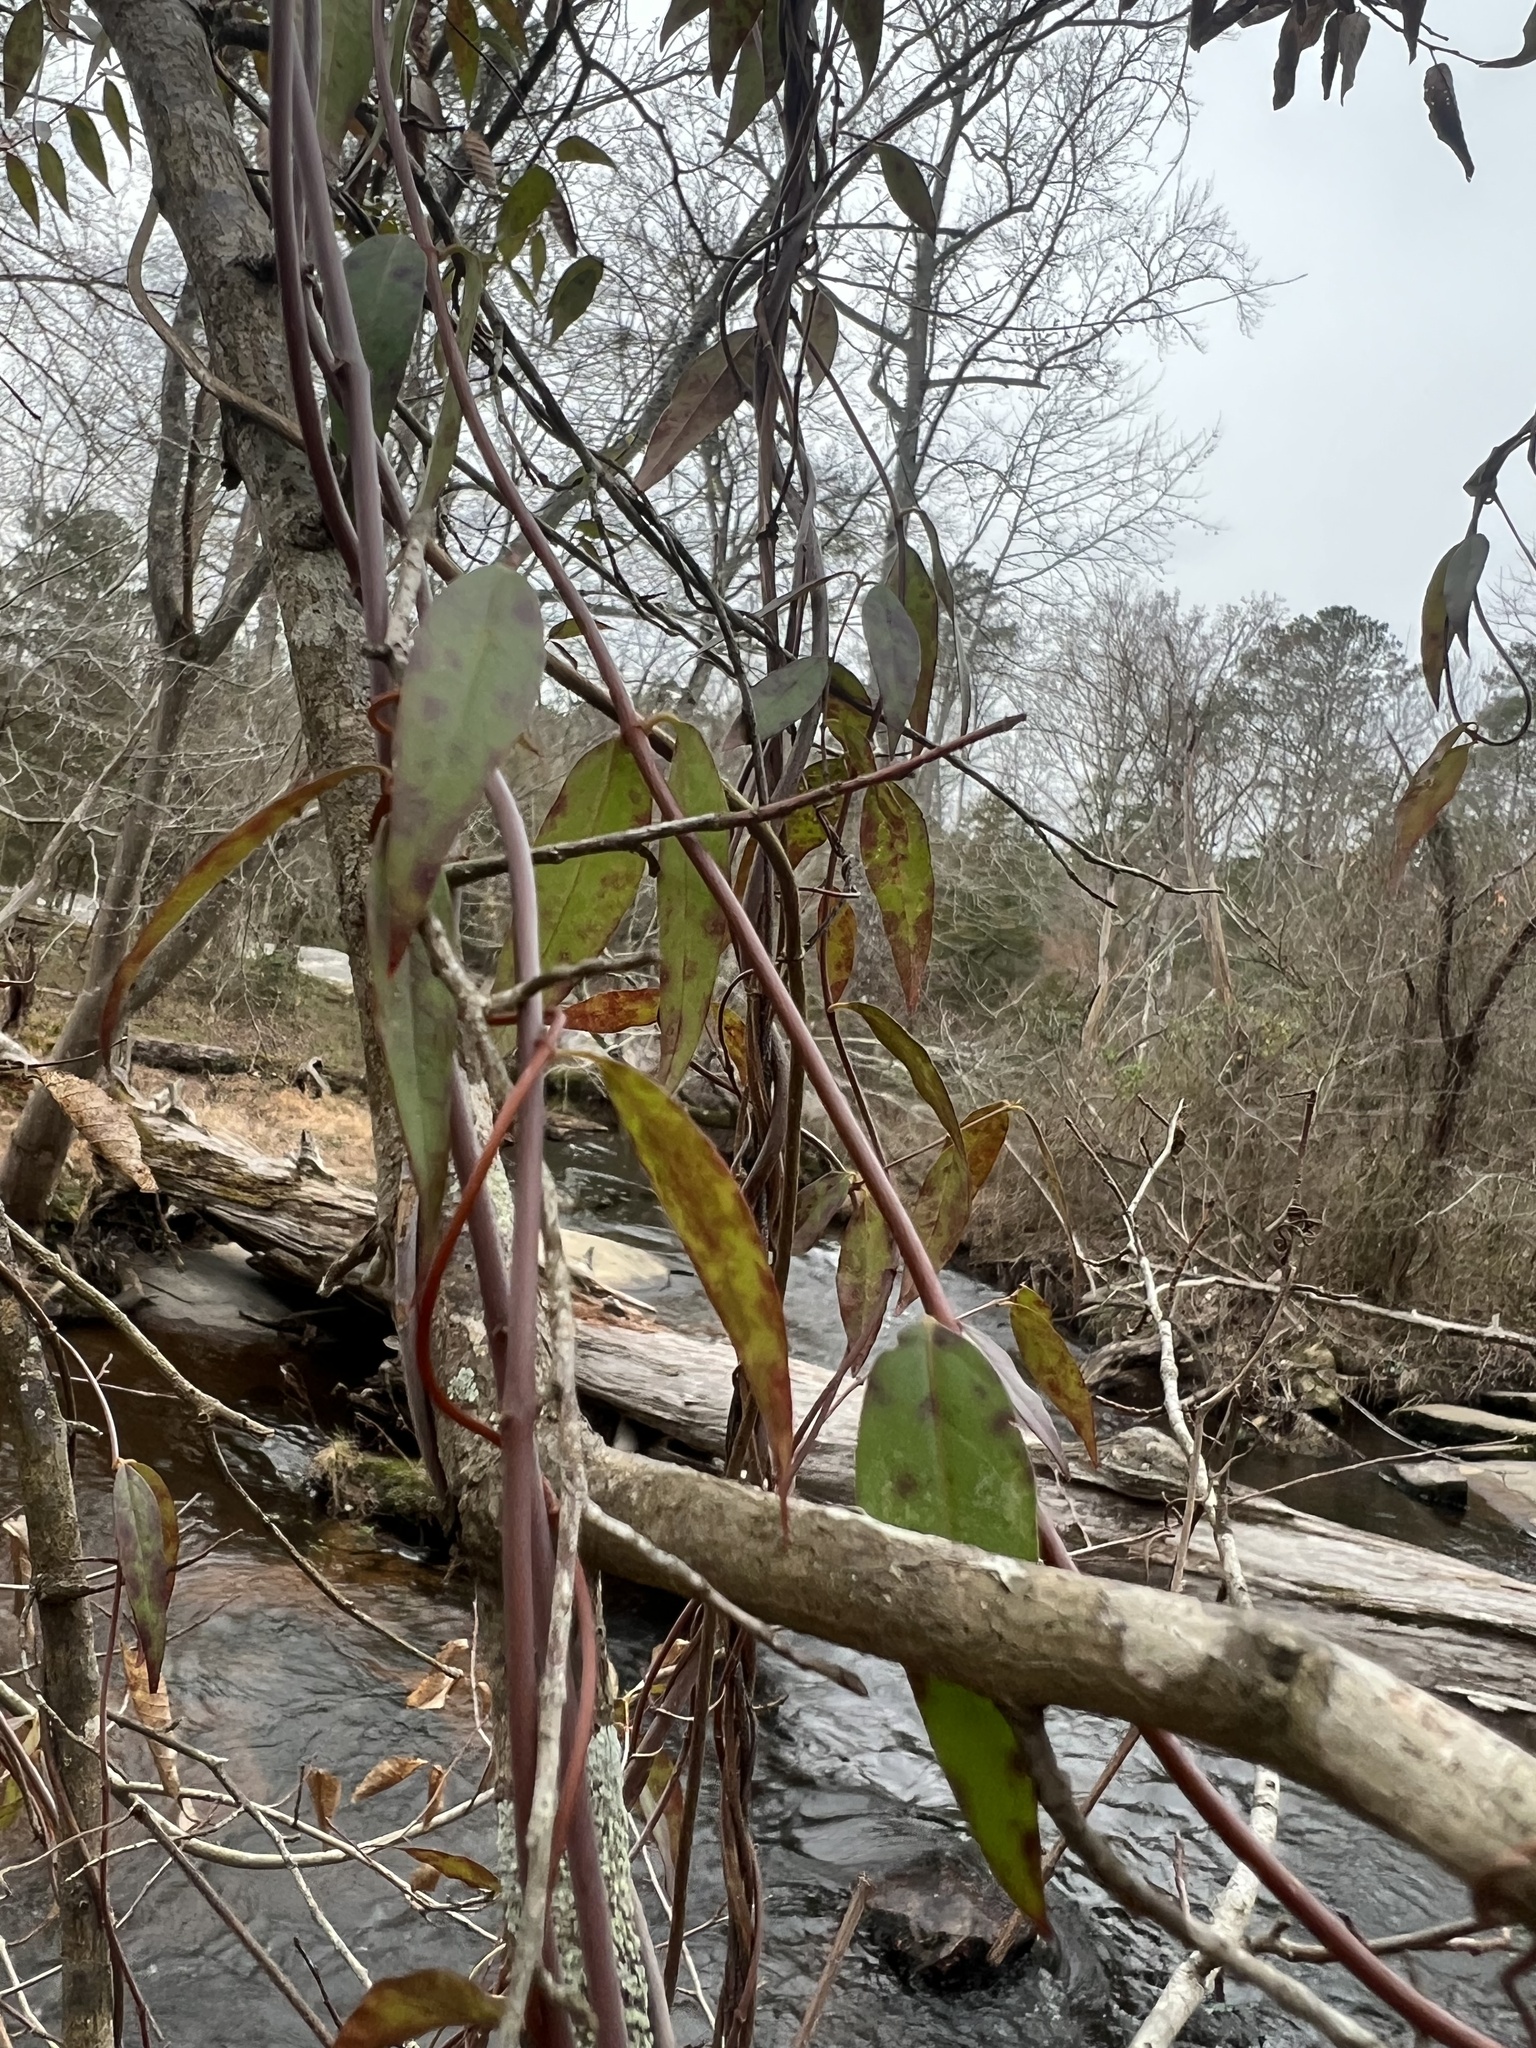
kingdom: Plantae
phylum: Tracheophyta
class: Magnoliopsida
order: Gentianales
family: Gelsemiaceae
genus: Gelsemium
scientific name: Gelsemium sempervirens
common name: Carolina-jasmine
